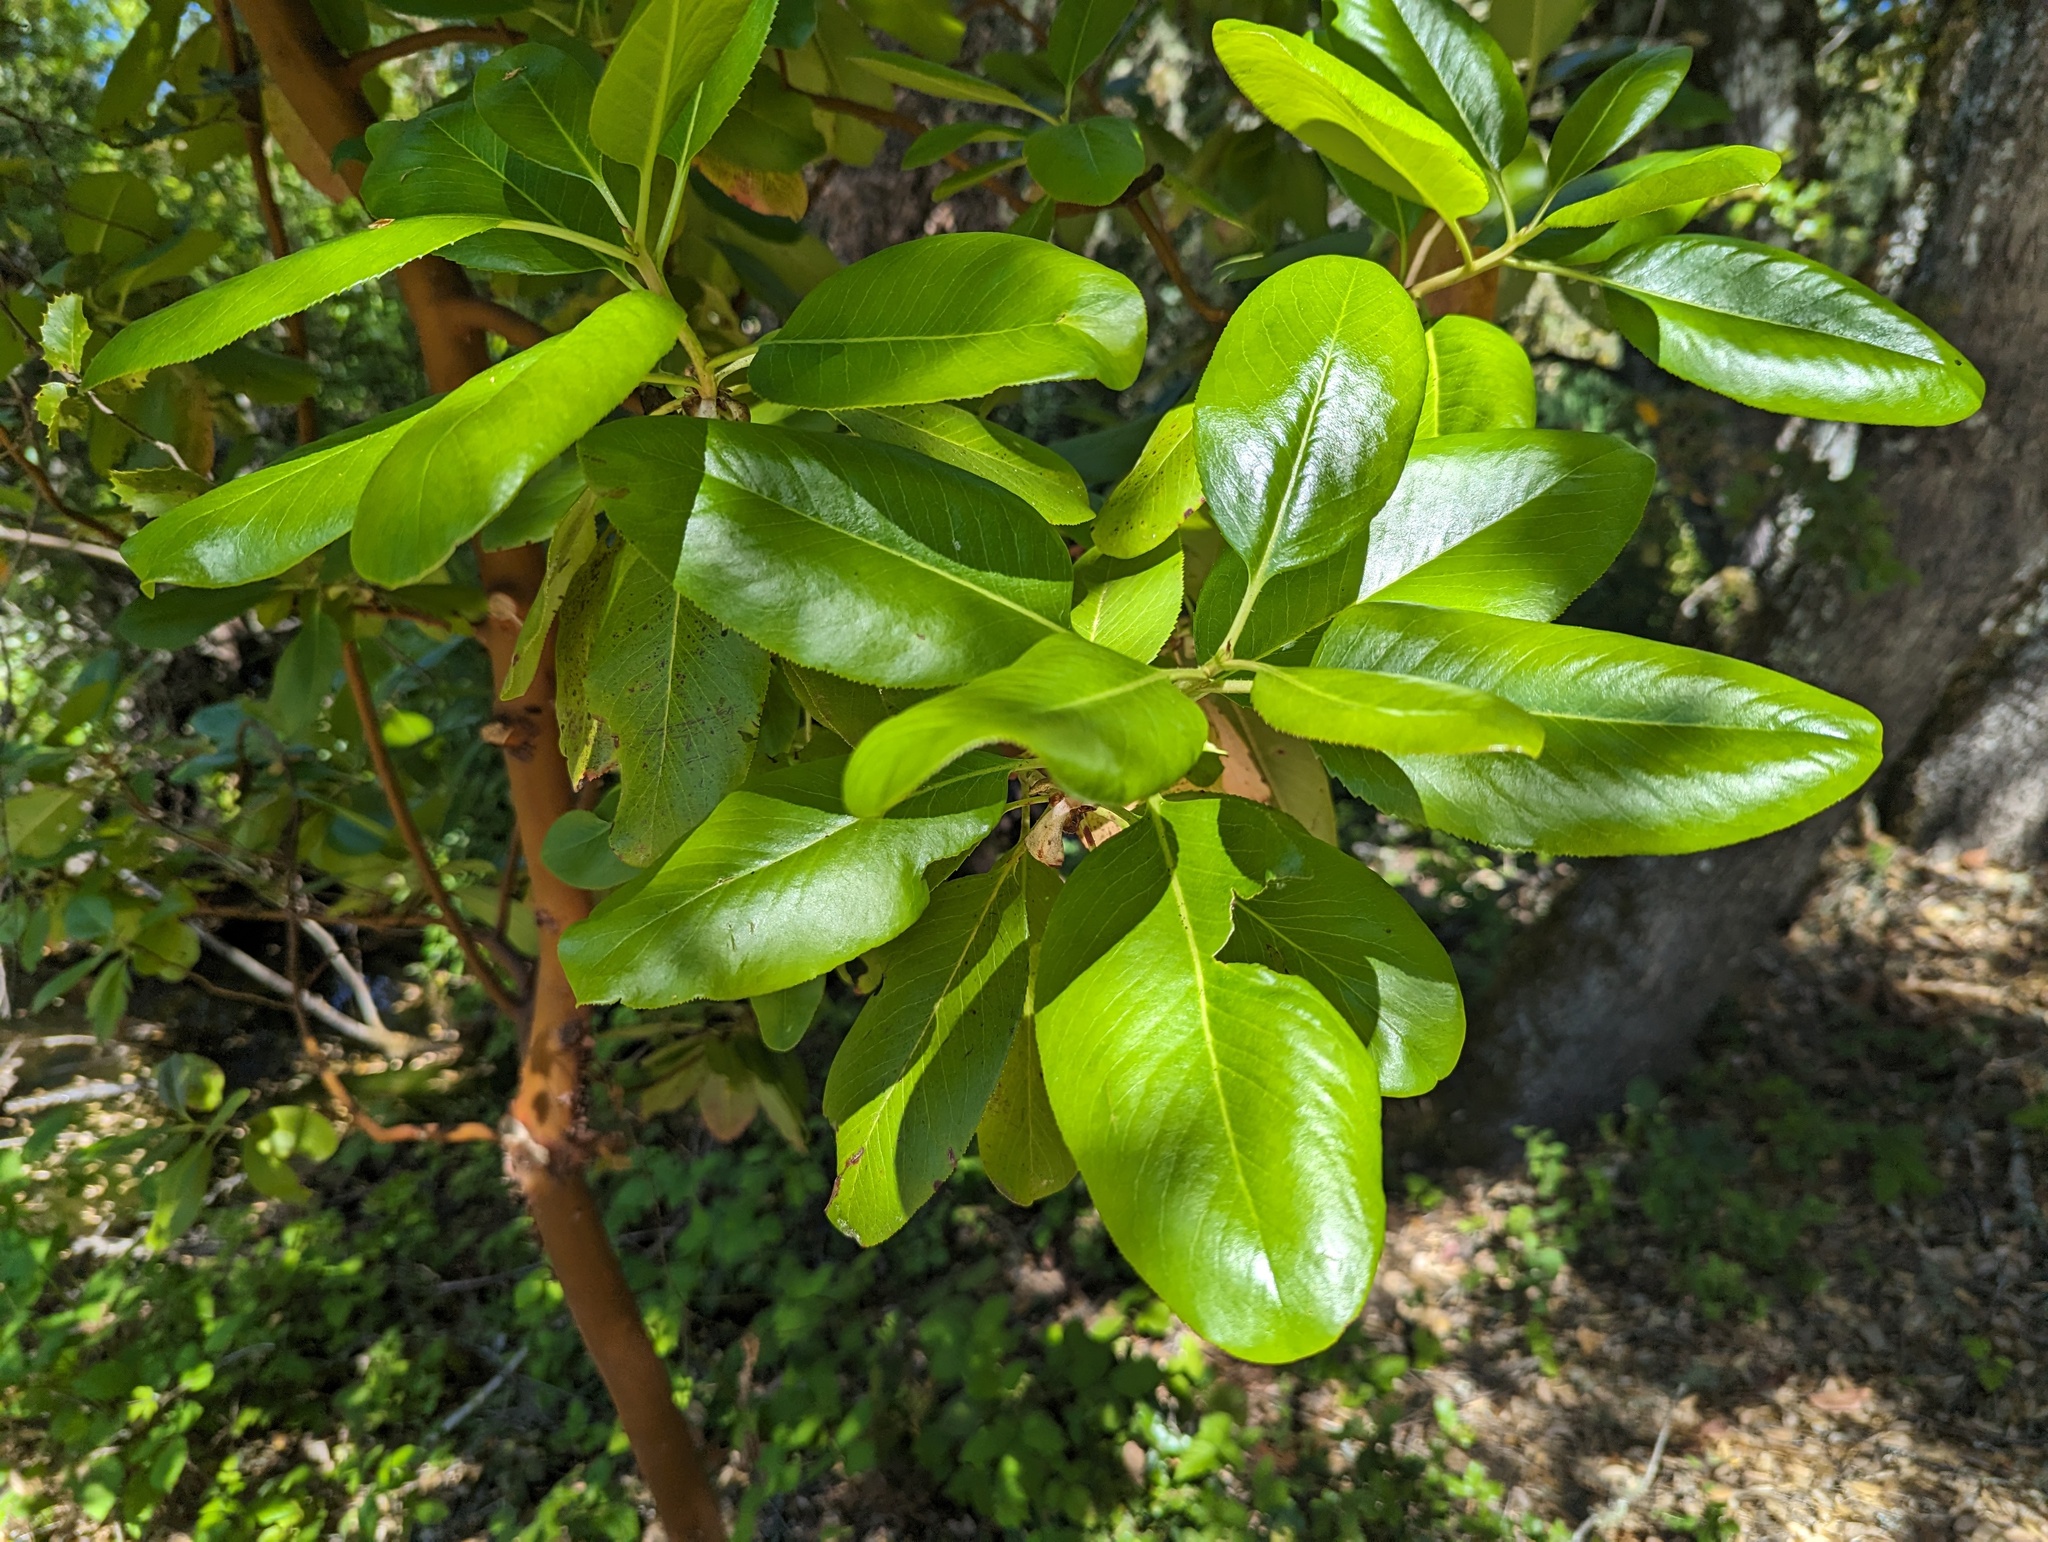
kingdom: Plantae
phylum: Tracheophyta
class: Magnoliopsida
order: Ericales
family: Ericaceae
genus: Arbutus
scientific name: Arbutus menziesii
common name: Pacific madrone
